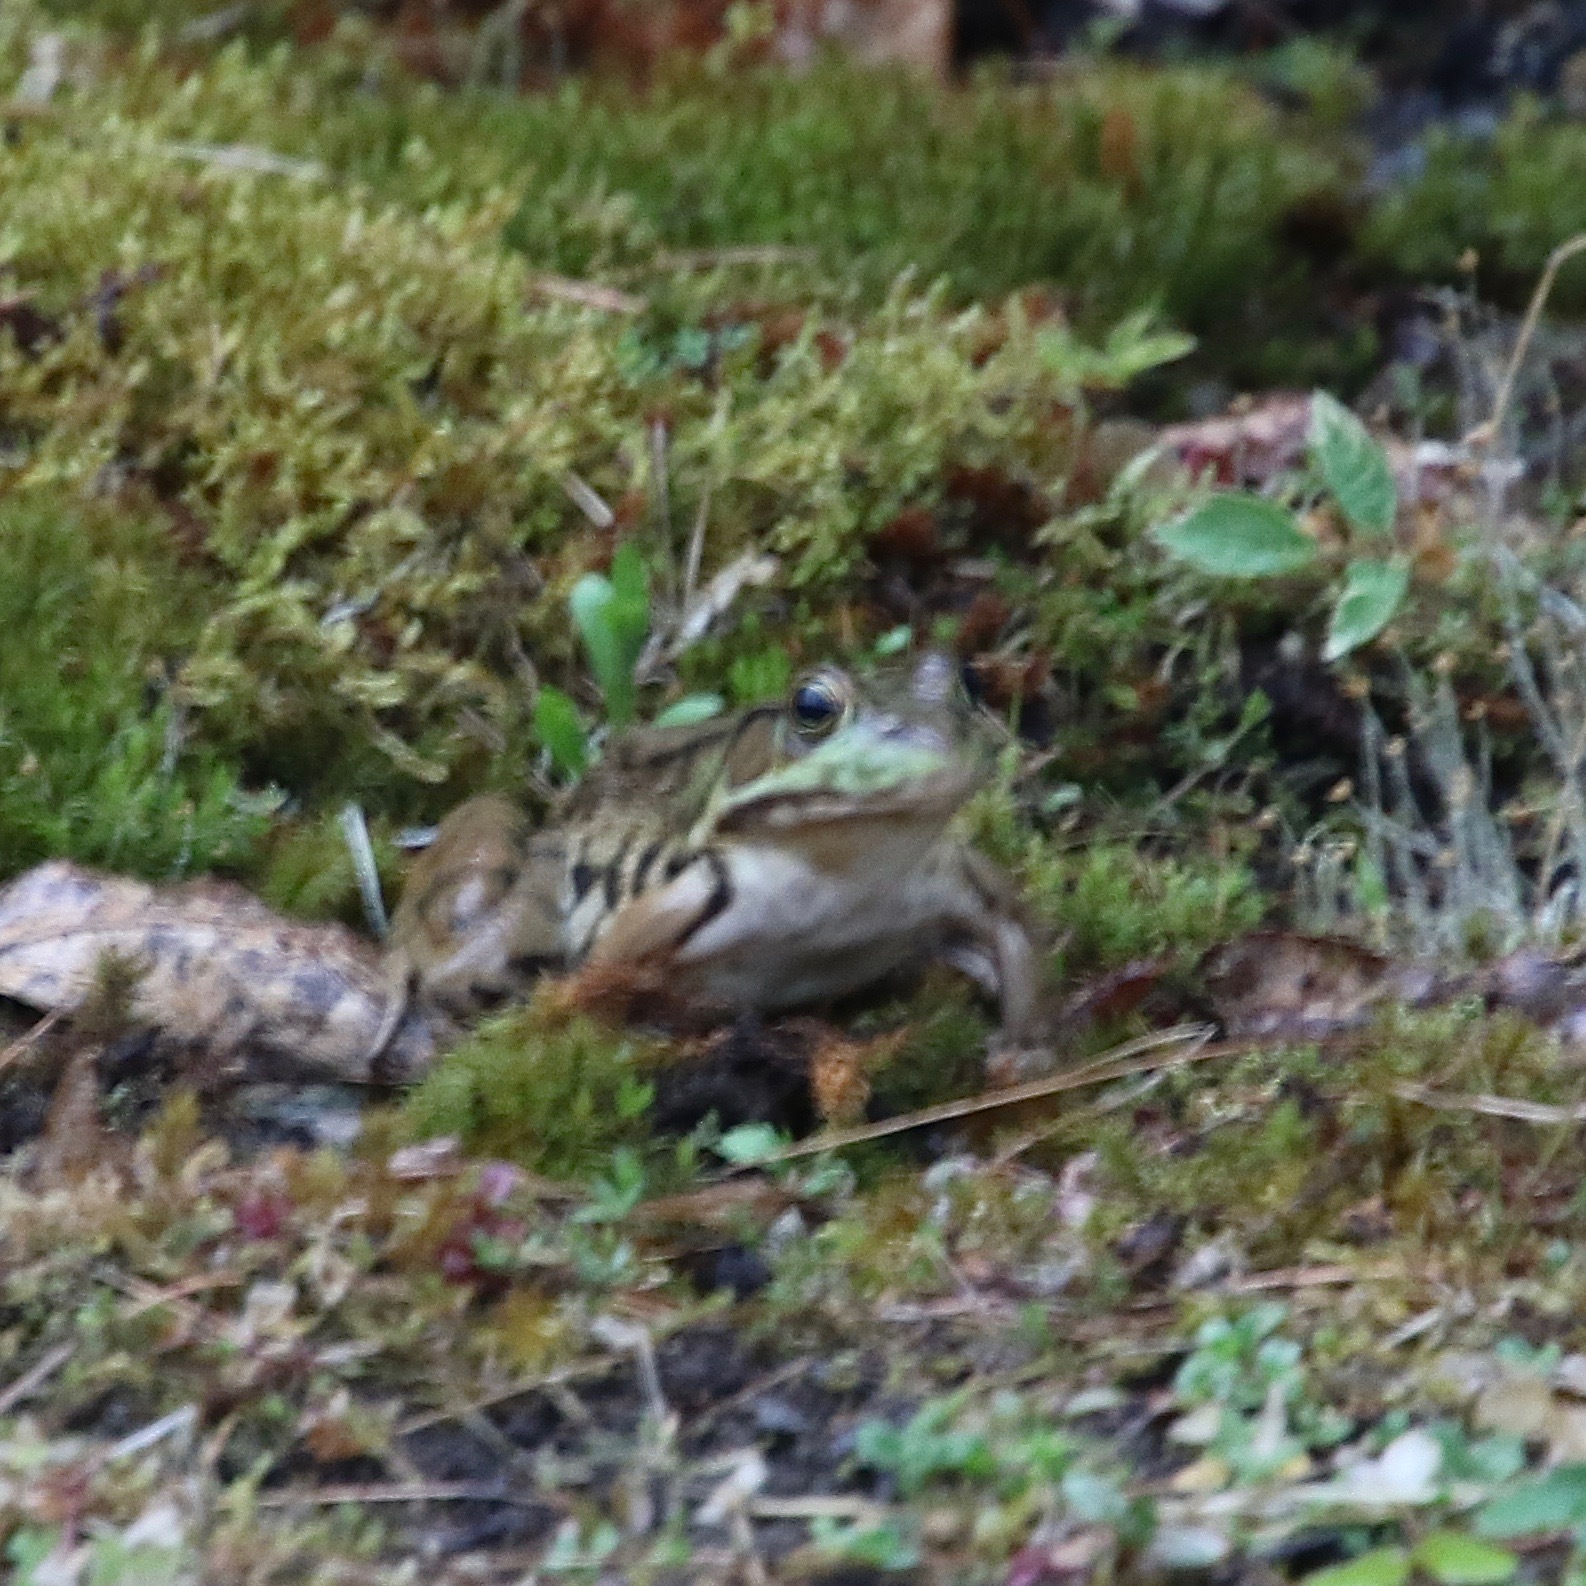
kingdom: Animalia
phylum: Chordata
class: Amphibia
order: Anura
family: Ranidae
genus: Lithobates
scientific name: Lithobates clamitans
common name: Green frog
